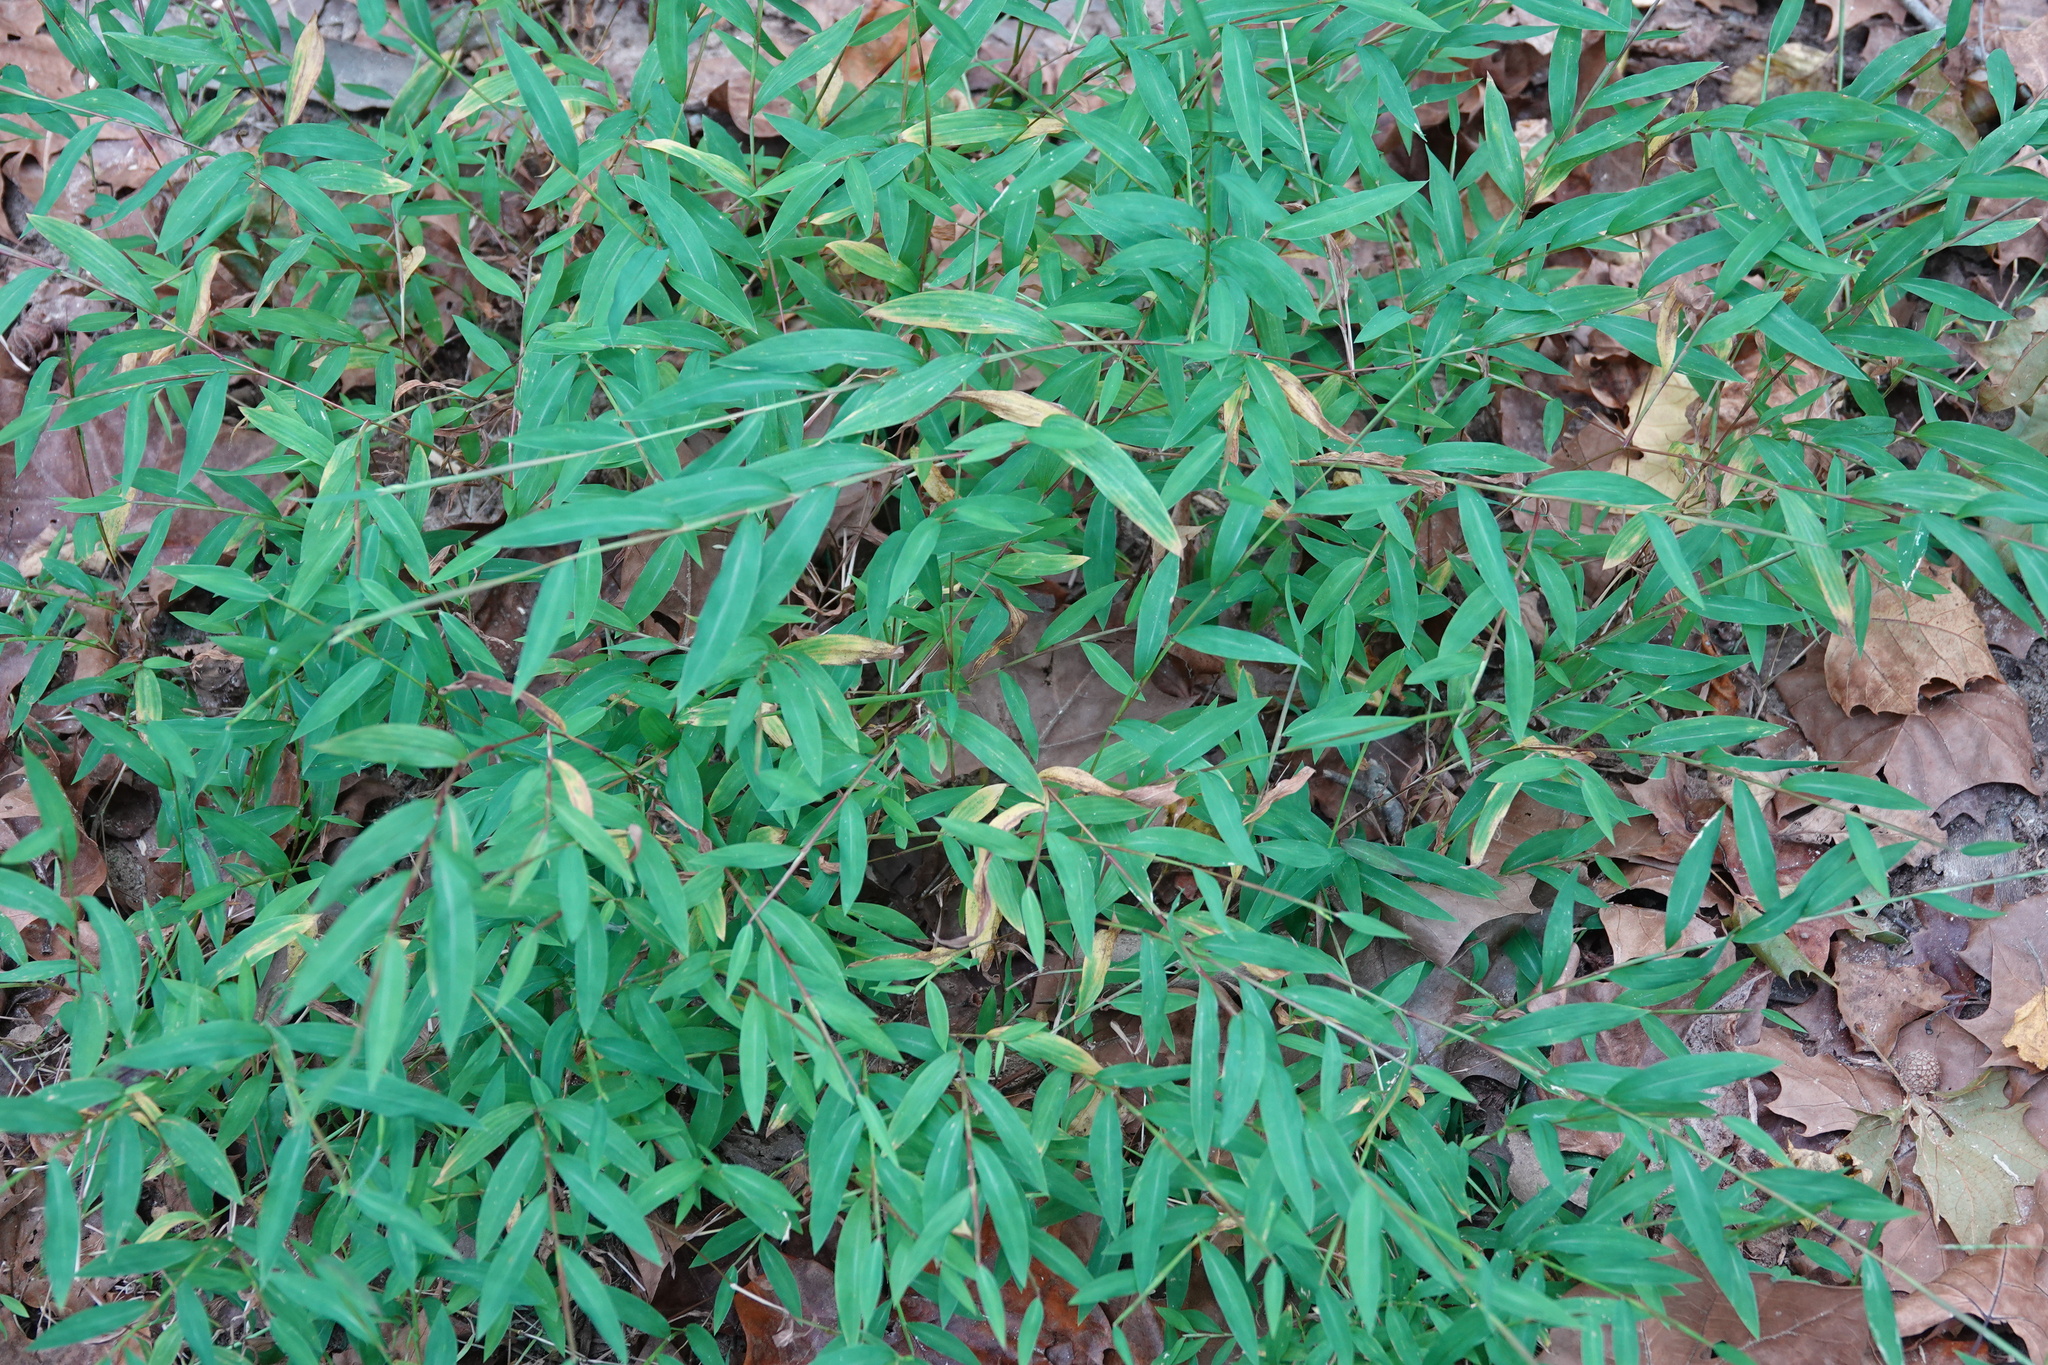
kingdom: Plantae
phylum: Tracheophyta
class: Liliopsida
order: Poales
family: Poaceae
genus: Microstegium
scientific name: Microstegium vimineum
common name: Japanese stiltgrass
